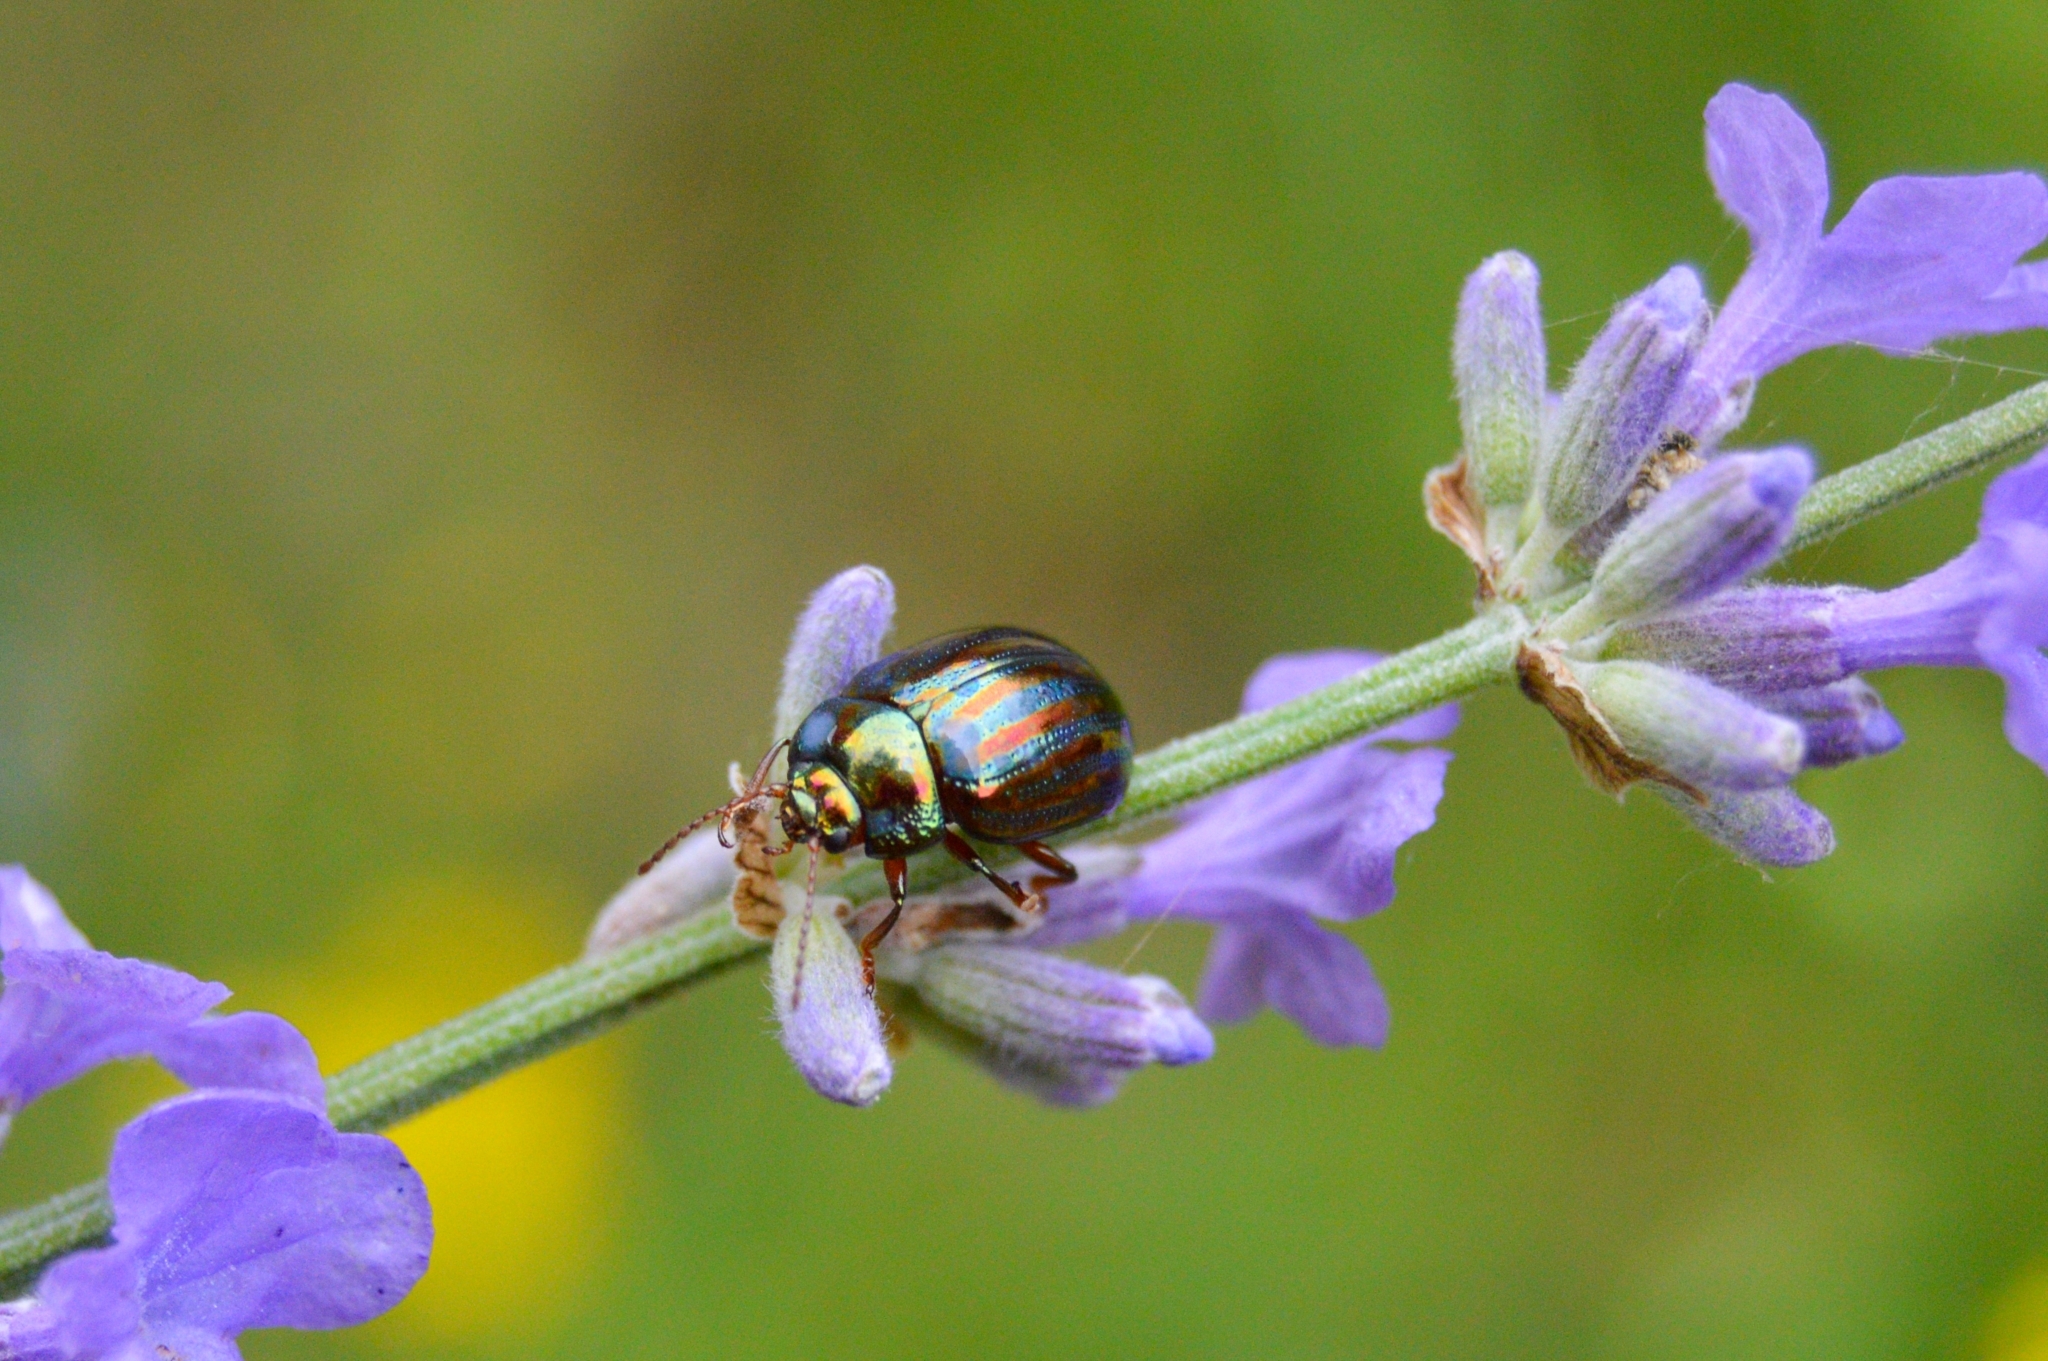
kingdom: Animalia
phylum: Arthropoda
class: Insecta
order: Coleoptera
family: Chrysomelidae
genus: Chrysolina
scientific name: Chrysolina americana
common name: Rosemary beetle
